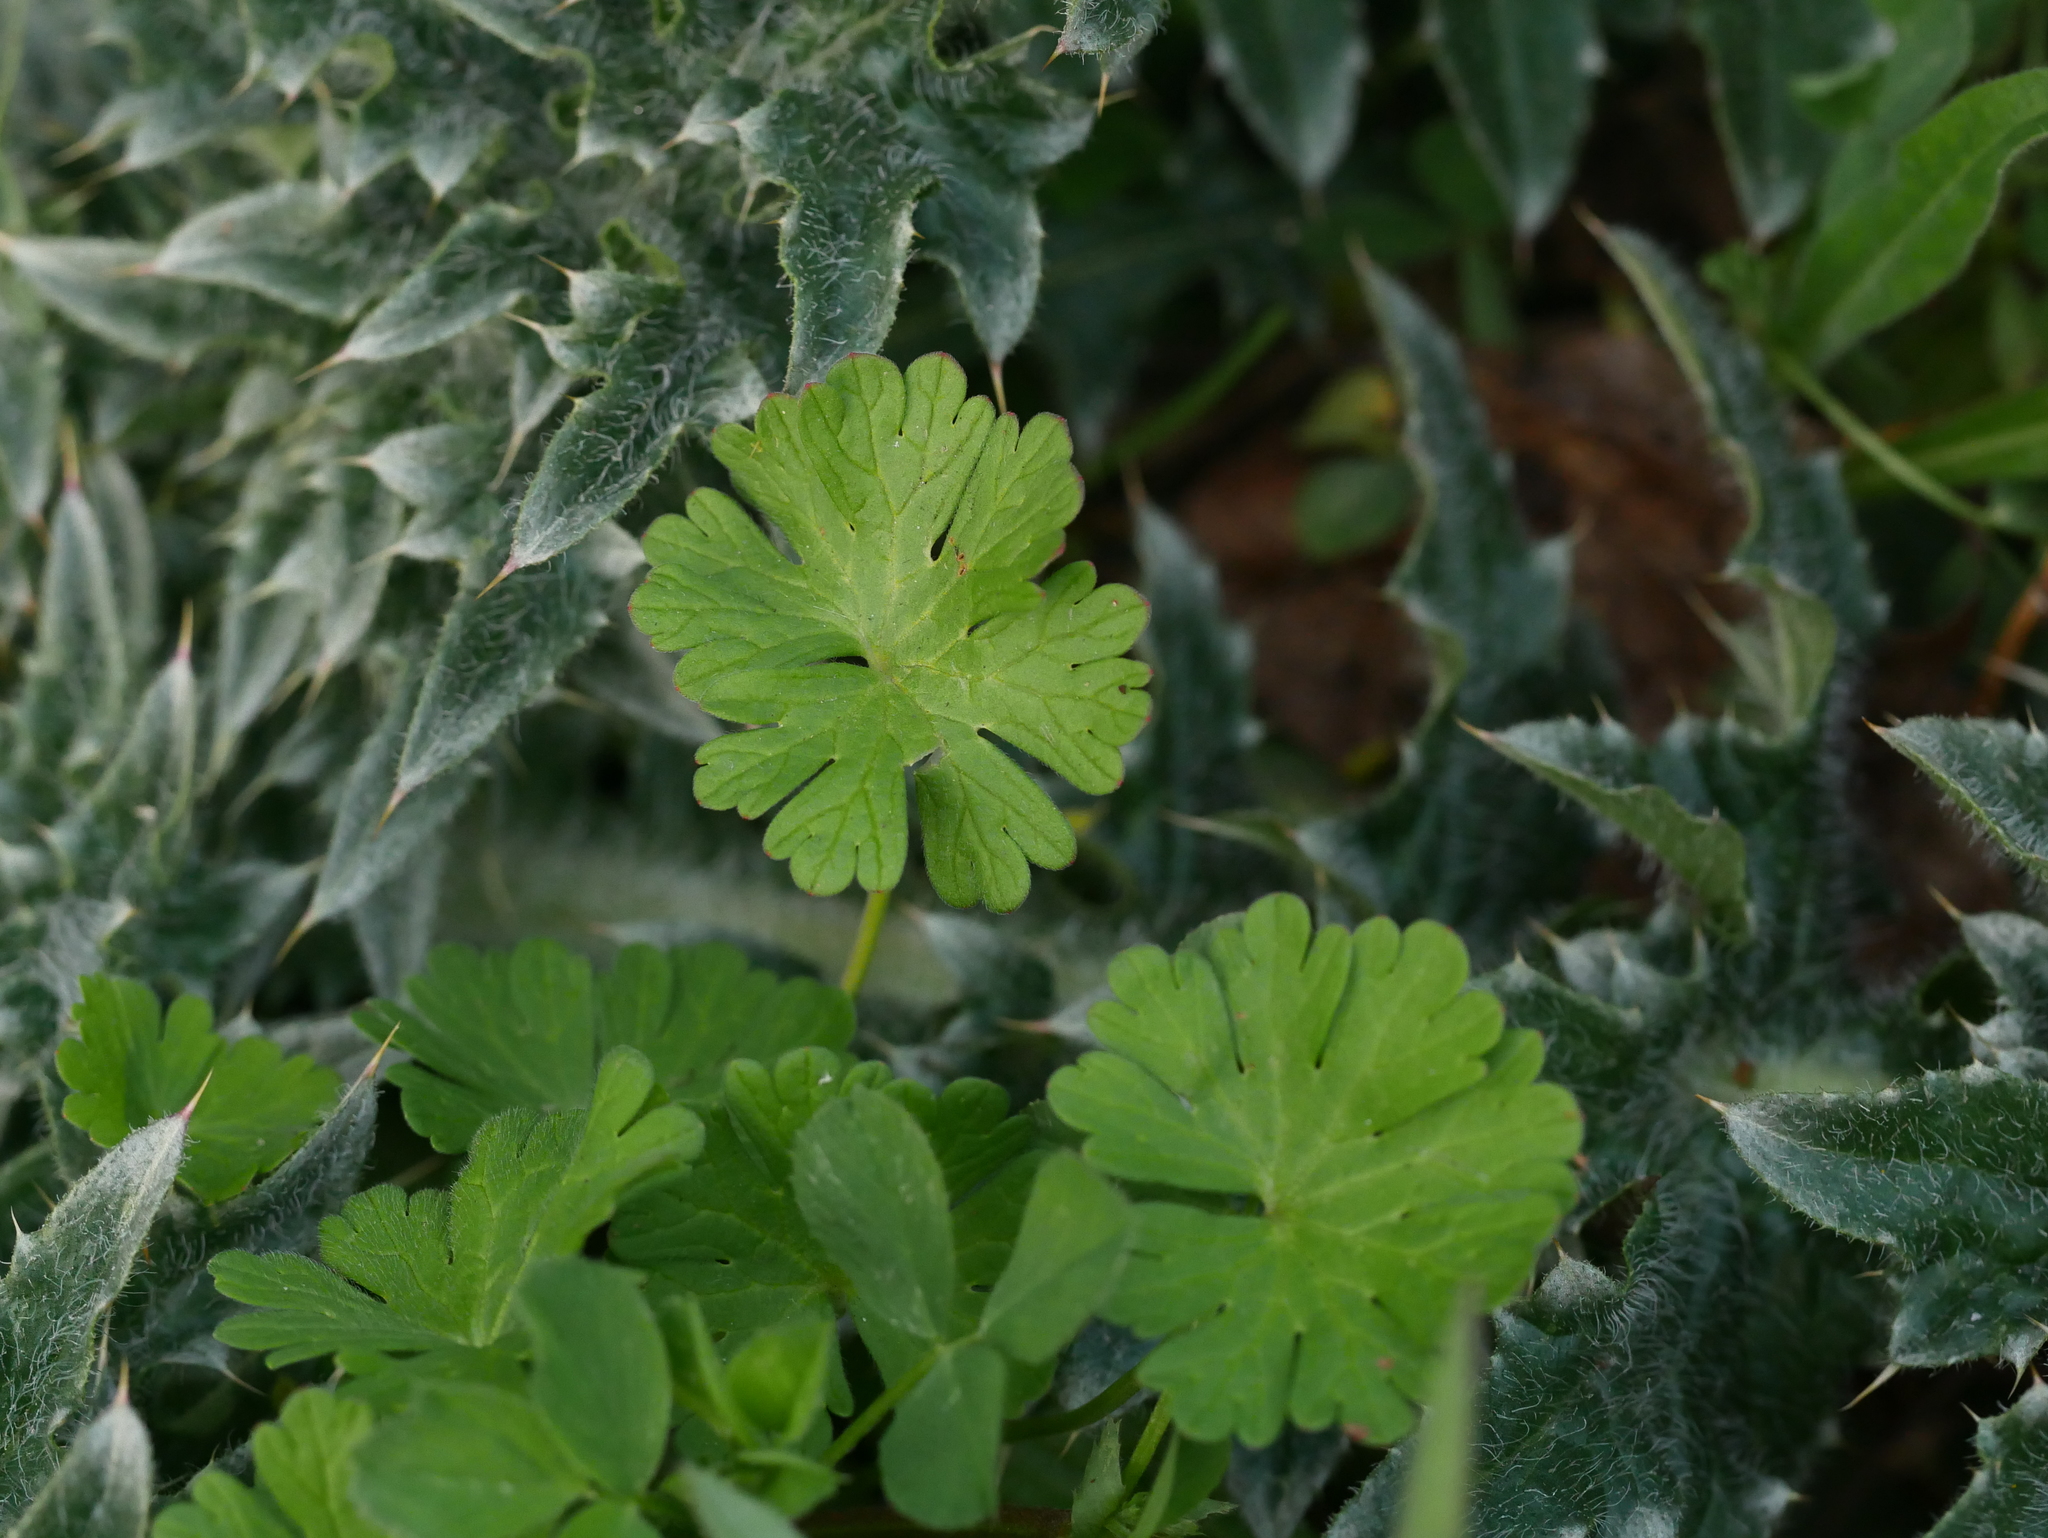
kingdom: Plantae
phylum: Tracheophyta
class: Magnoliopsida
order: Geraniales
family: Geraniaceae
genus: Geranium
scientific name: Geranium molle
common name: Dove's-foot crane's-bill
